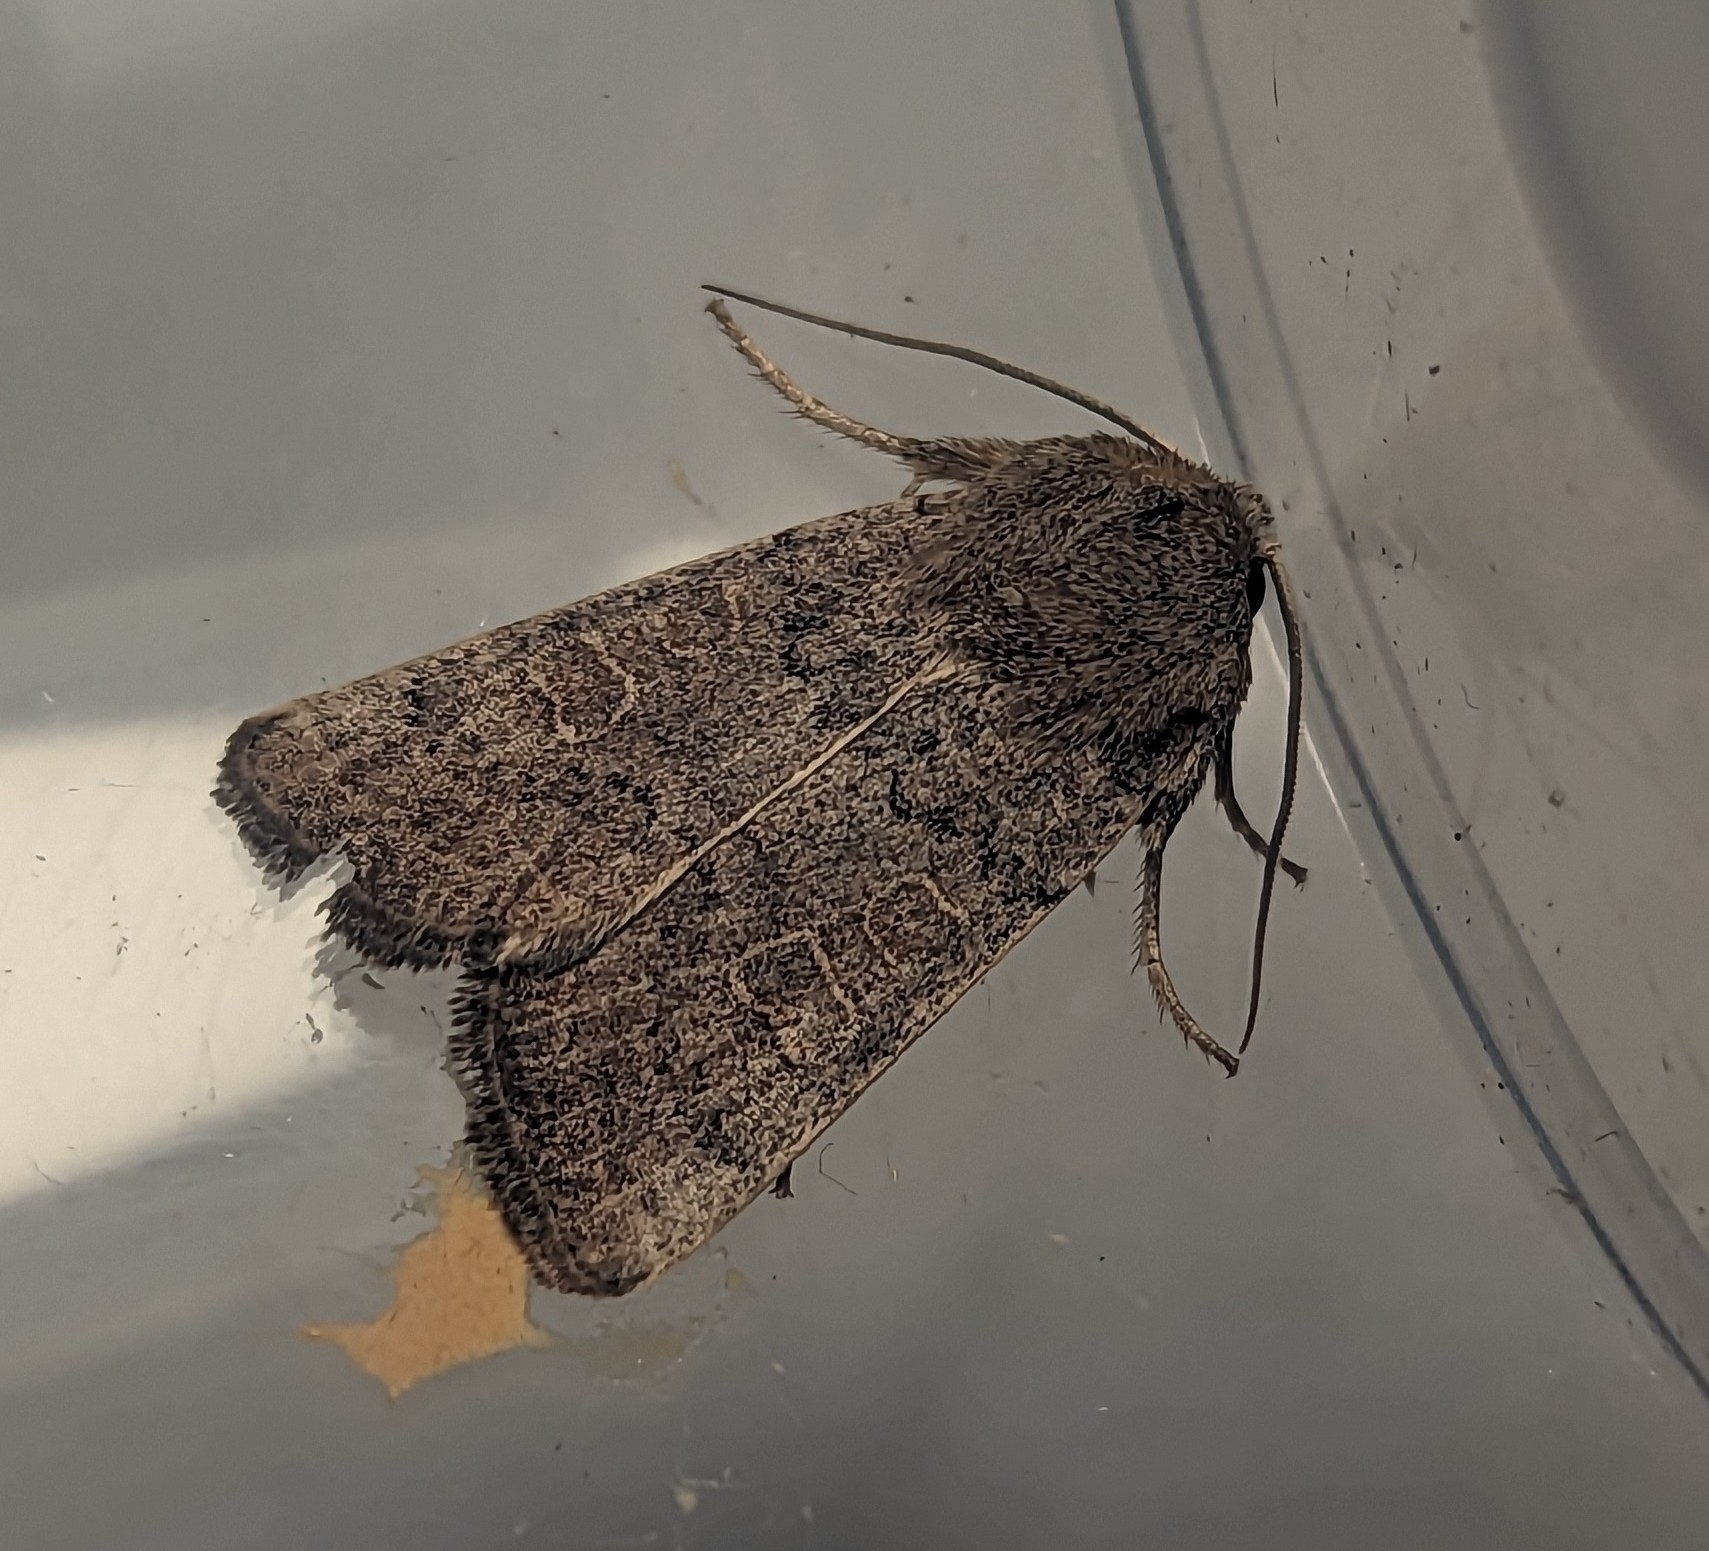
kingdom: Animalia
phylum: Arthropoda
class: Insecta
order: Lepidoptera
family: Noctuidae
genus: Hoplodrina
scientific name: Hoplodrina ambigua
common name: Vine's rustic
